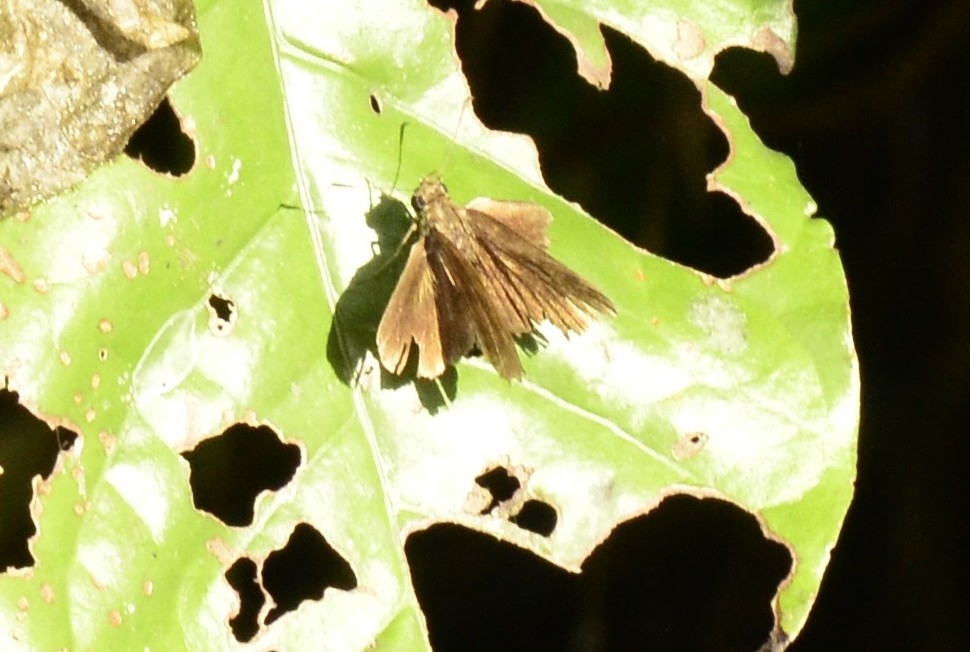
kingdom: Animalia
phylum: Arthropoda
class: Insecta
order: Lepidoptera
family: Hesperiidae
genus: Iambrix
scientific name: Iambrix salsala
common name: Chestnut bob
